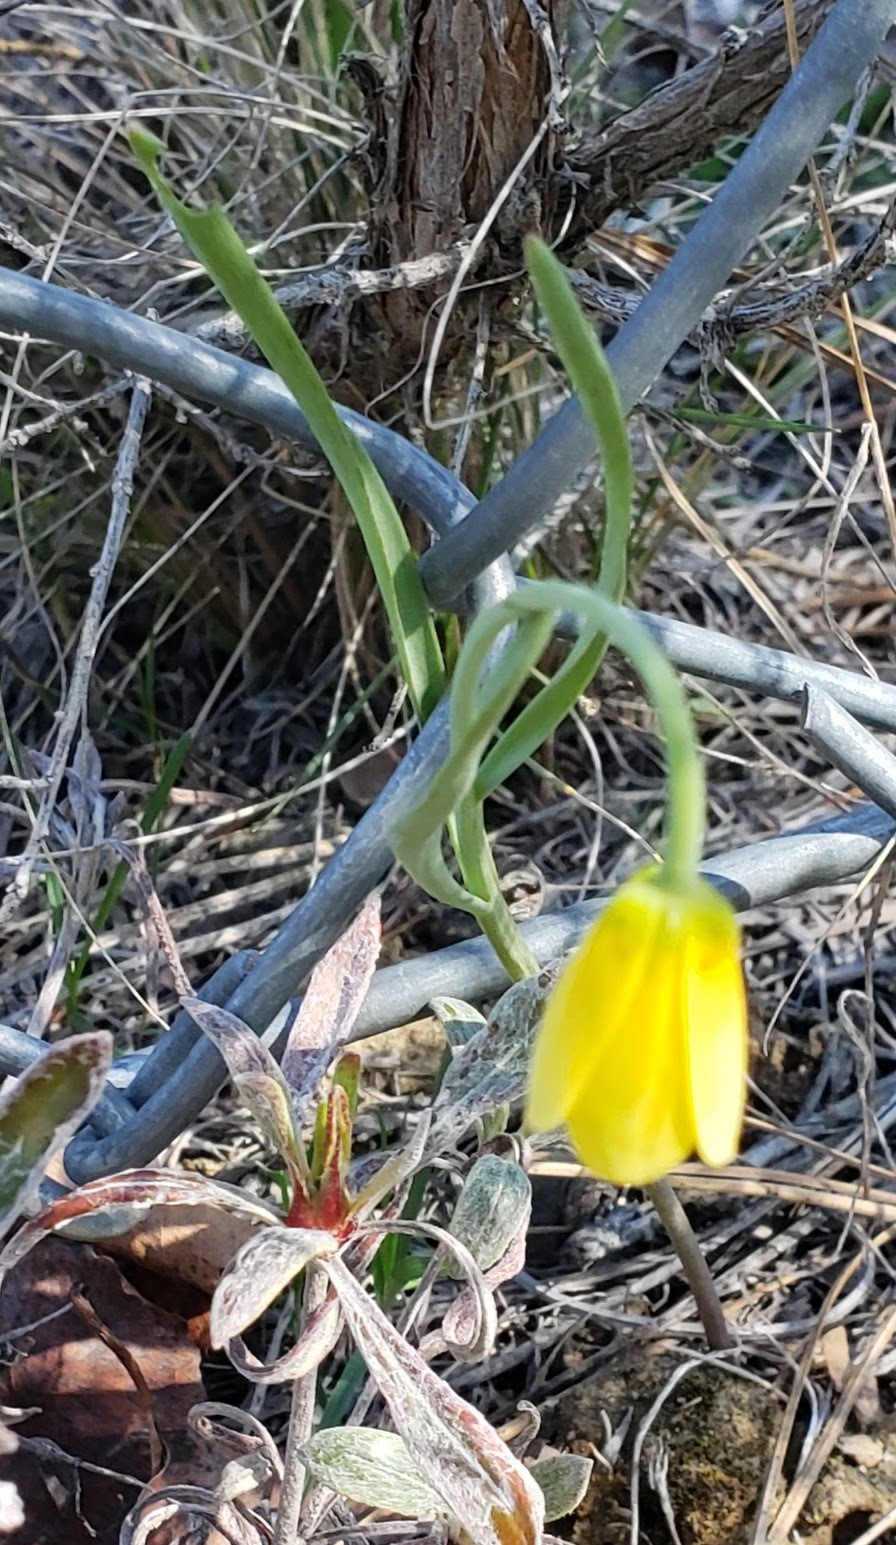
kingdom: Plantae
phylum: Tracheophyta
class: Liliopsida
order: Liliales
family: Liliaceae
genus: Fritillaria
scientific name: Fritillaria pudica
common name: Yellow fritillary
